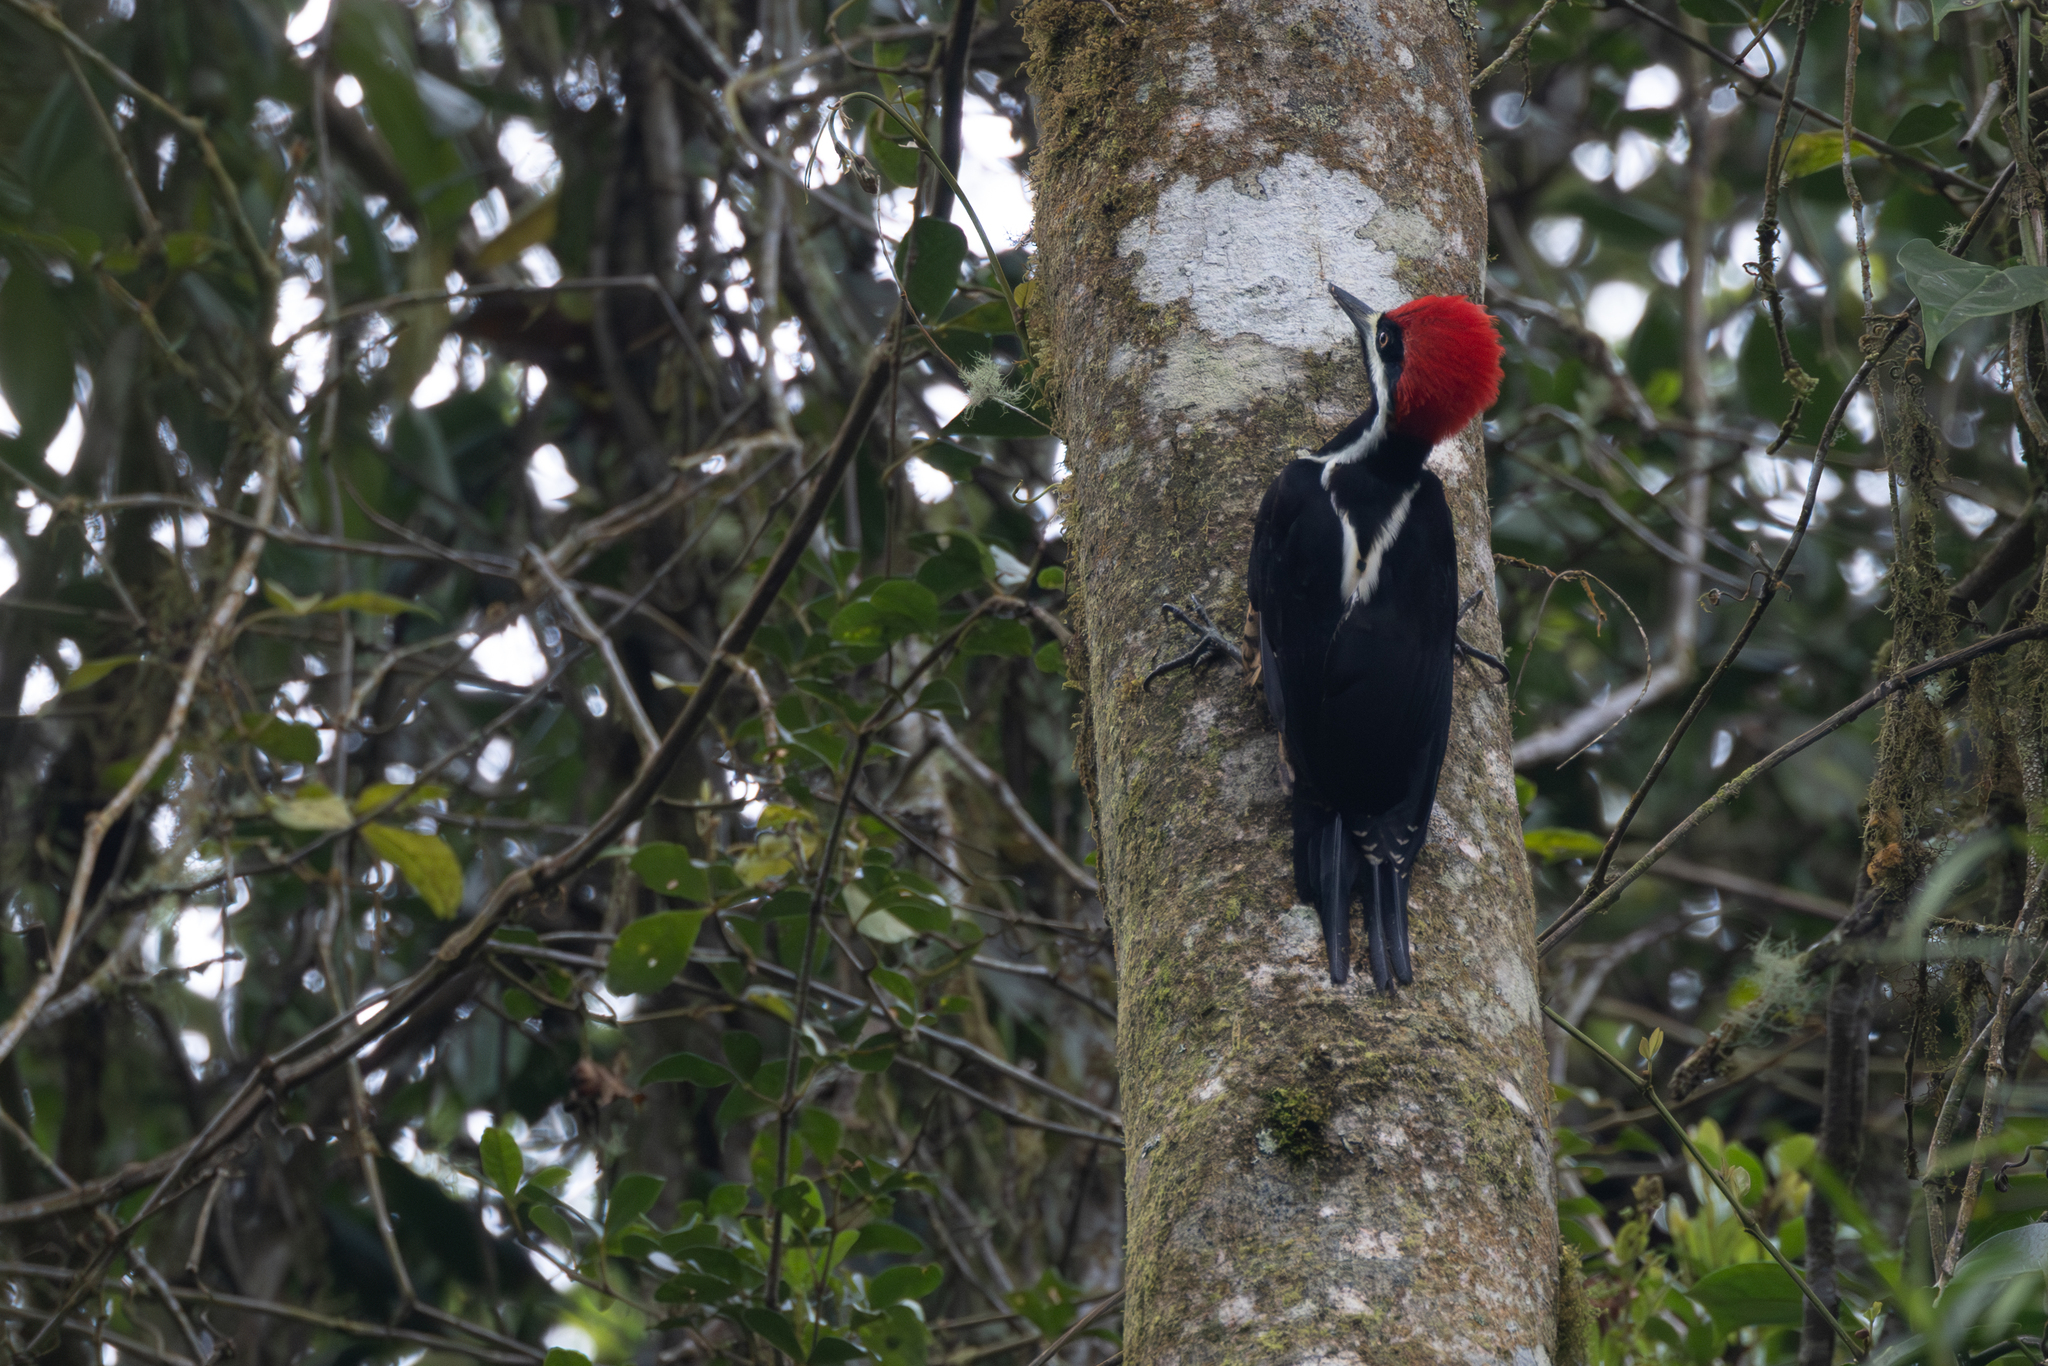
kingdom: Animalia
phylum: Chordata
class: Aves
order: Piciformes
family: Picidae
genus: Campephilus
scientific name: Campephilus pollens
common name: Powerful woodpecker
